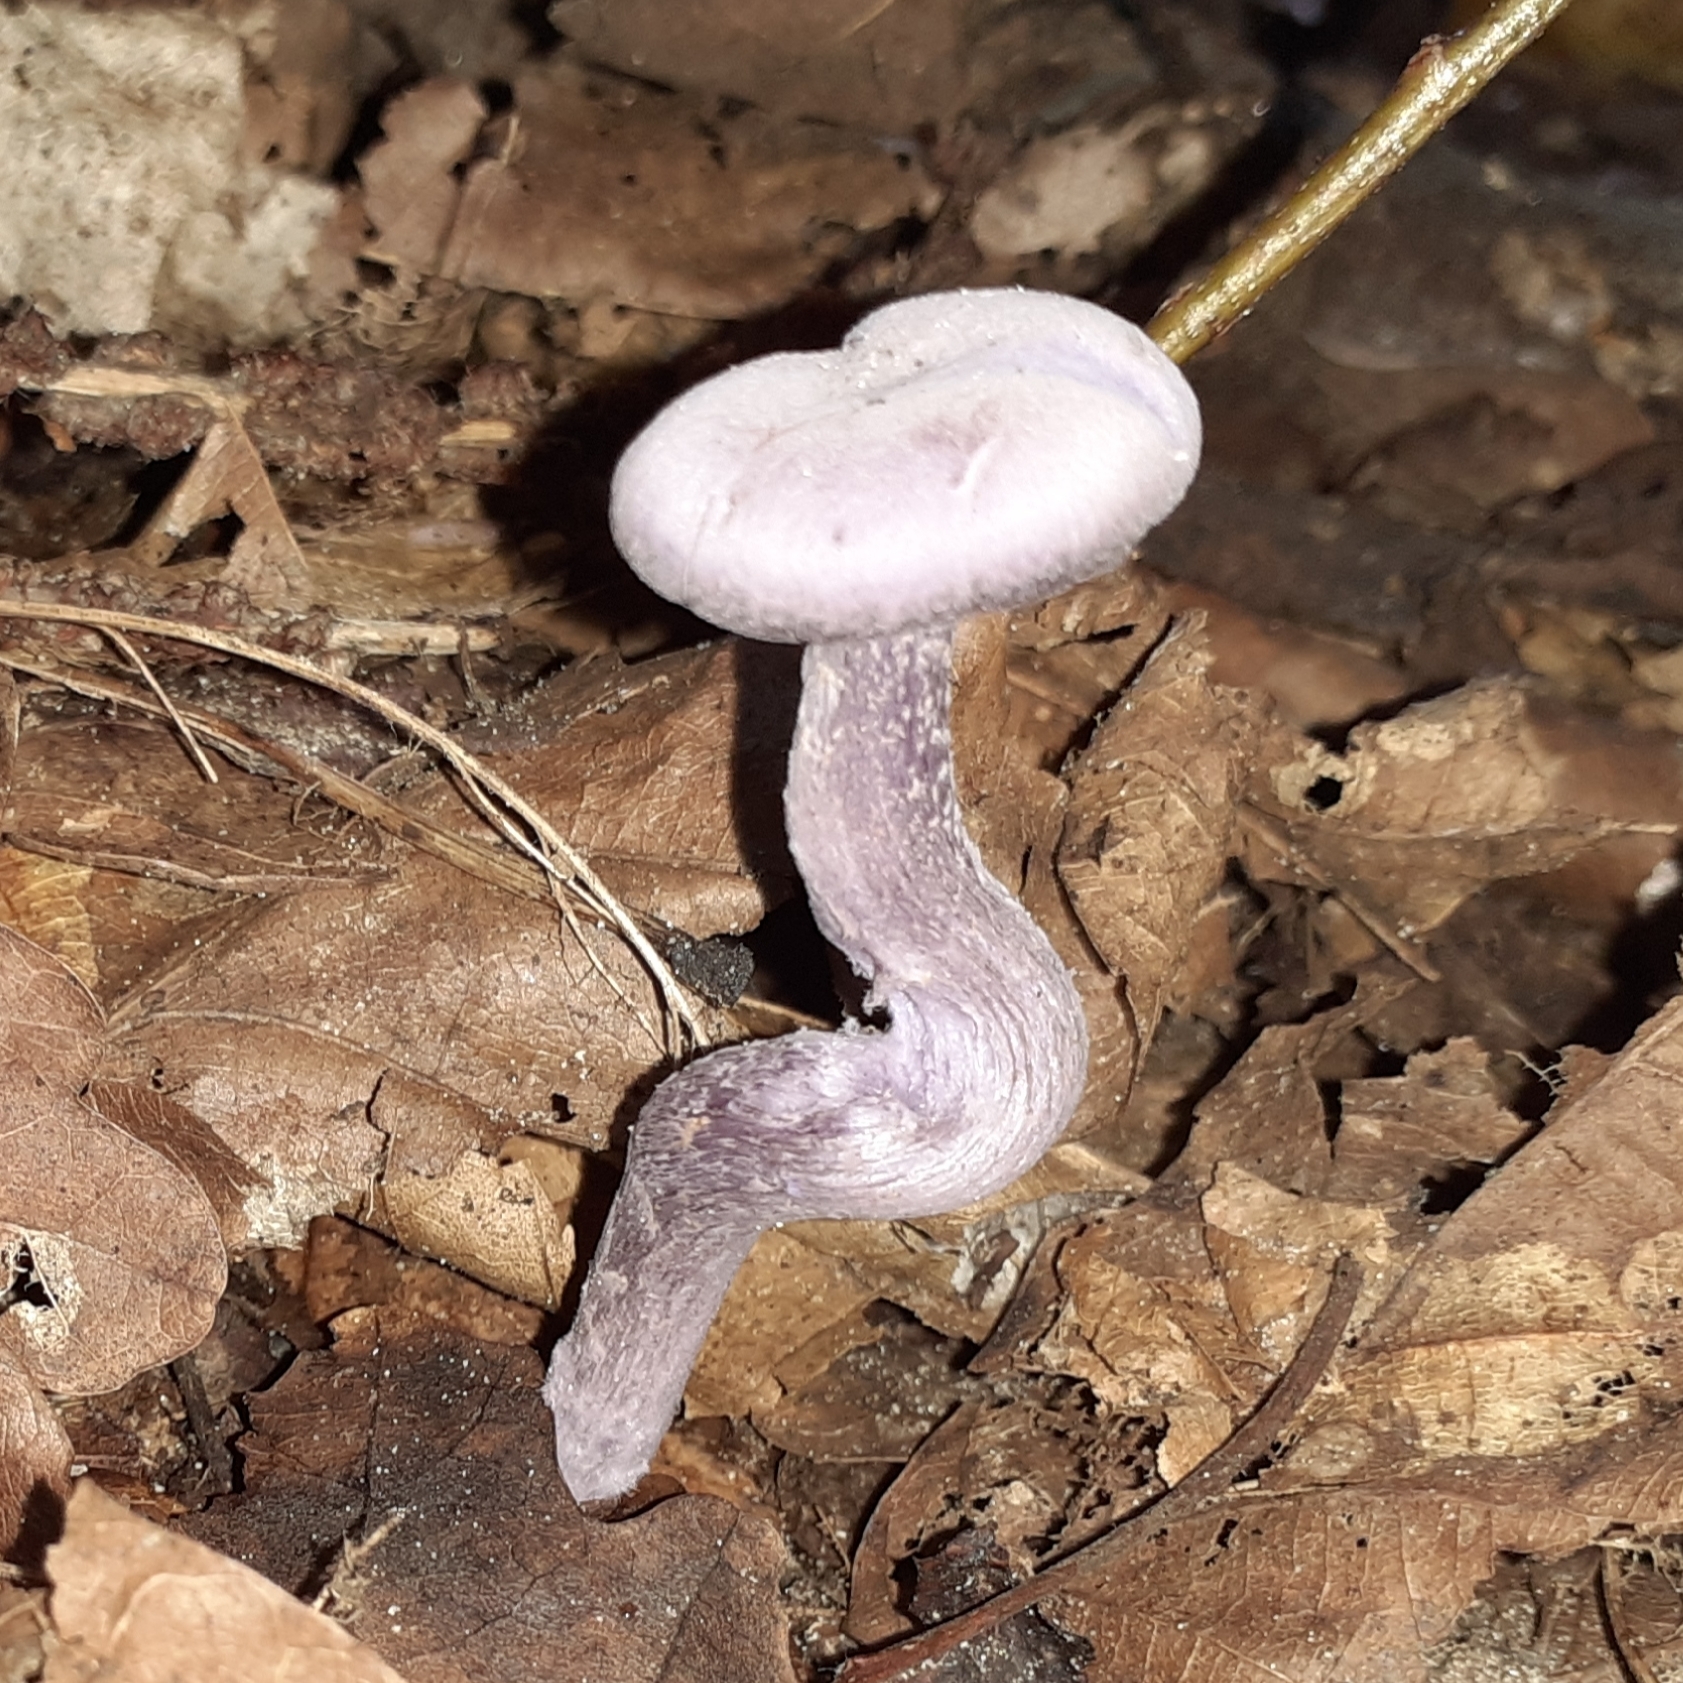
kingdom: Fungi
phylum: Basidiomycota
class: Agaricomycetes
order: Agaricales
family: Hydnangiaceae
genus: Laccaria
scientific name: Laccaria amethystina
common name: Amethyst deceiver
